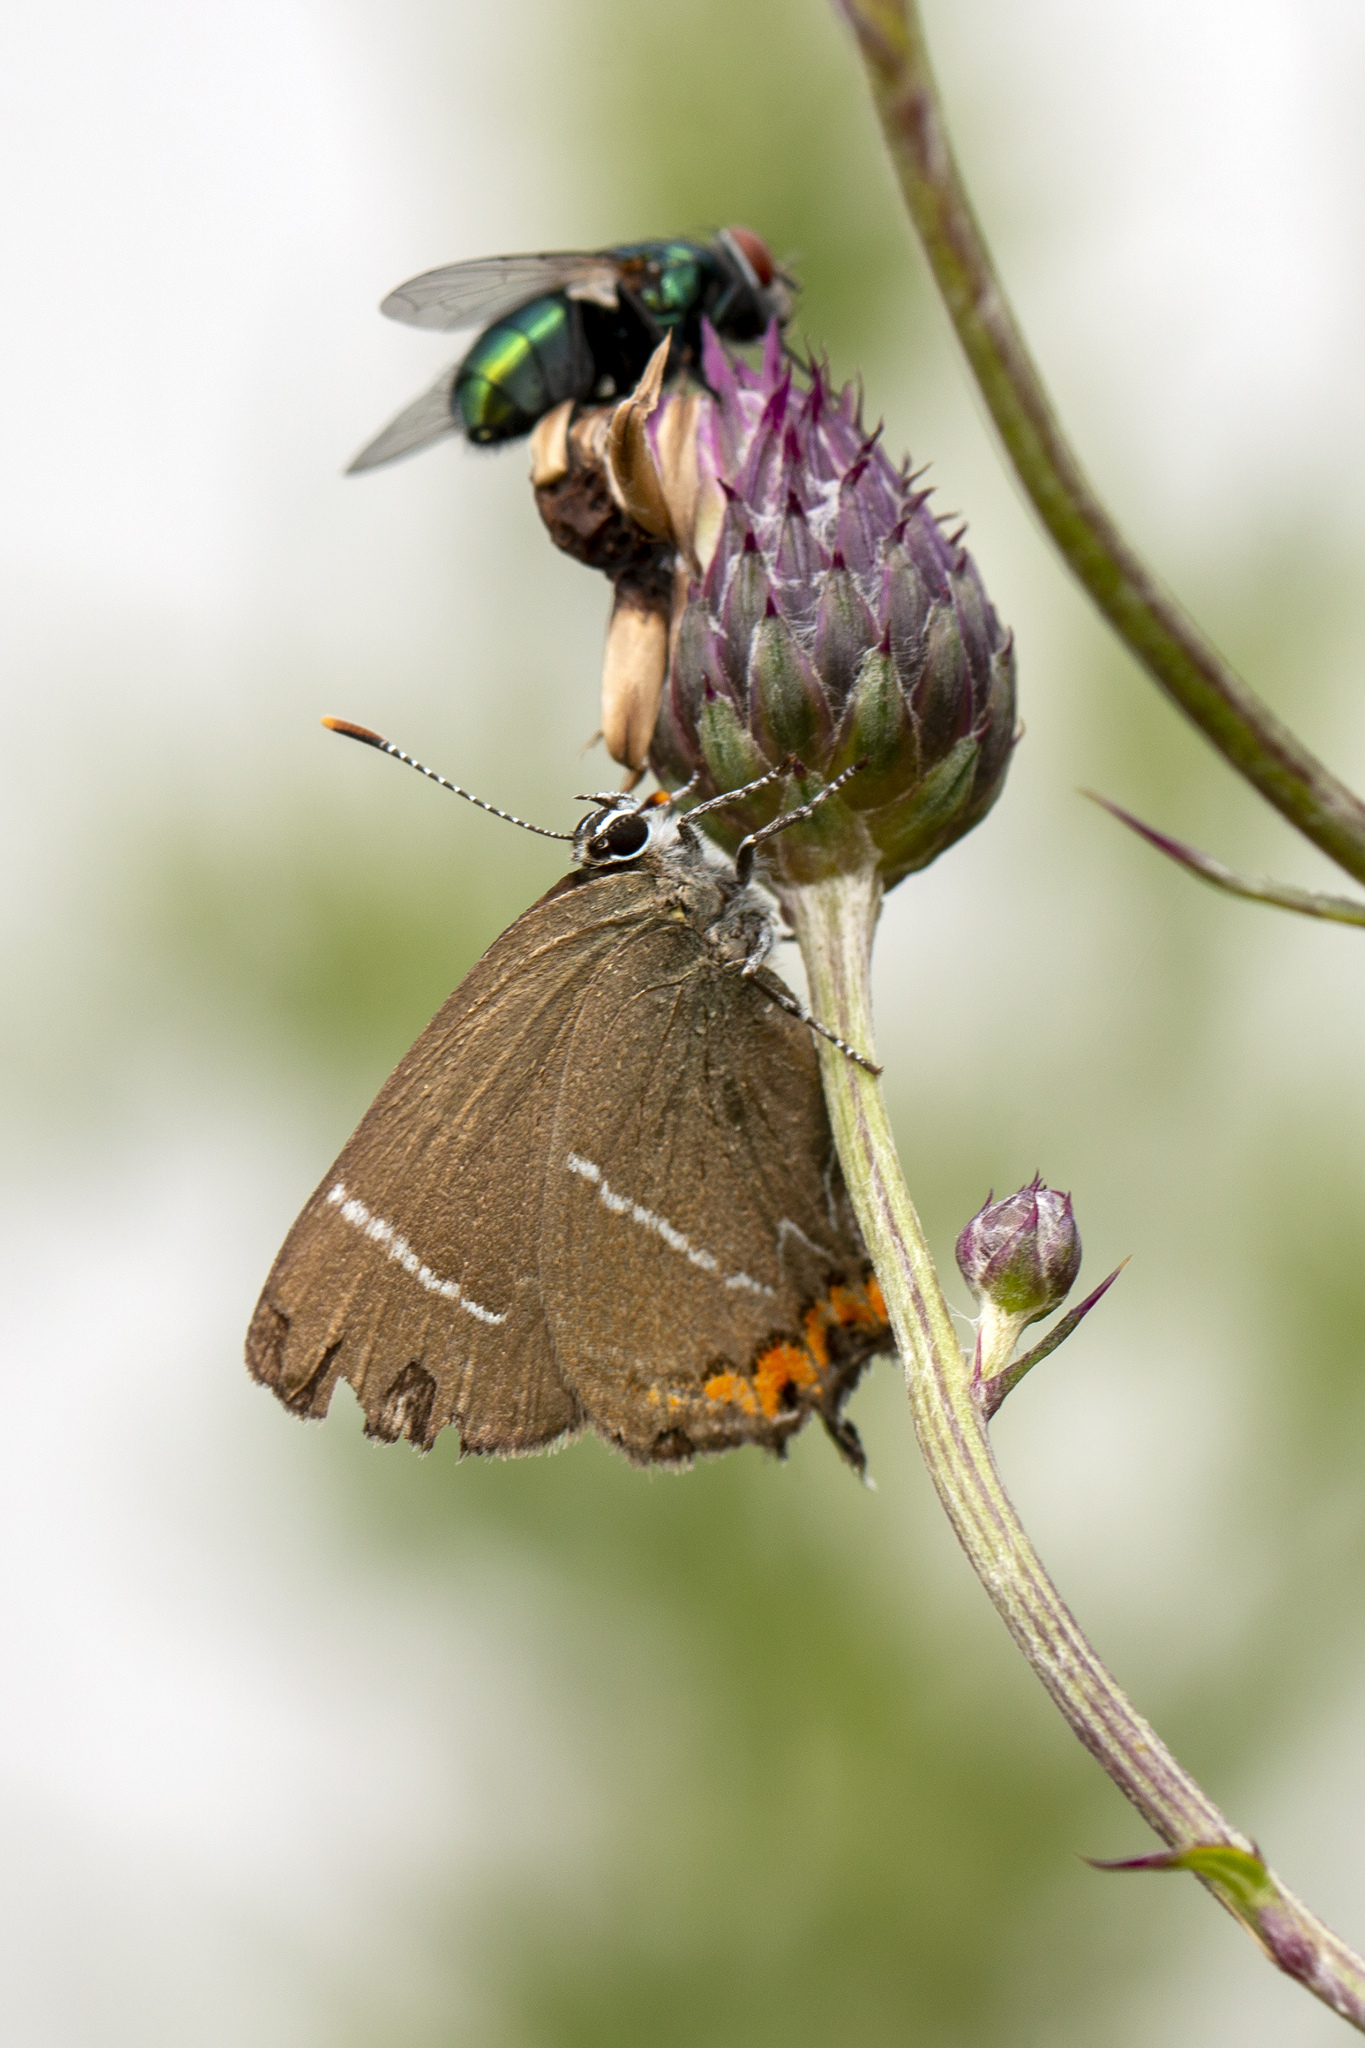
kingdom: Animalia
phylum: Arthropoda
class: Insecta
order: Lepidoptera
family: Lycaenidae
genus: Satyrium
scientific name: Satyrium w-album
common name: White-letter hairstreak
